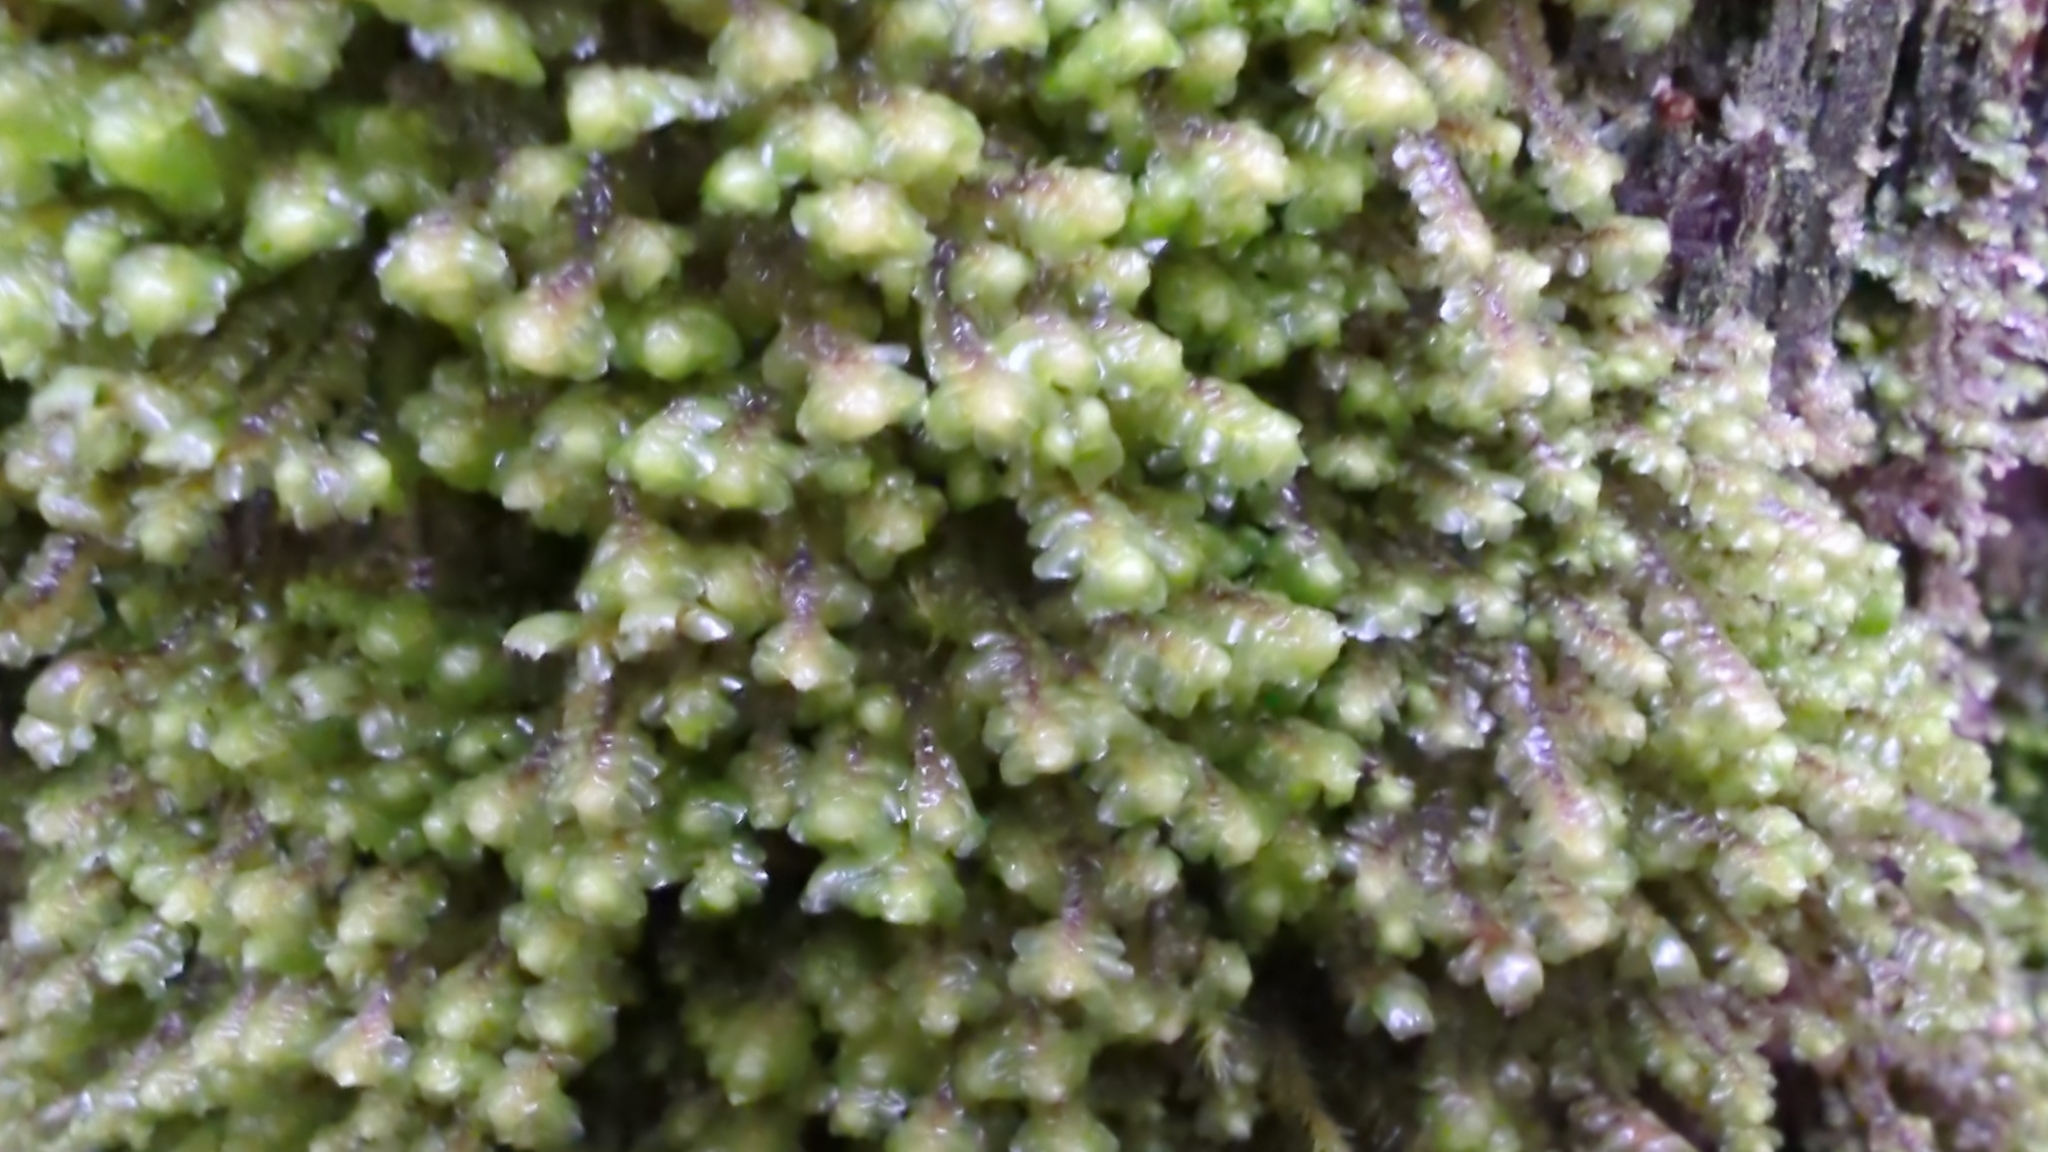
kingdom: Plantae
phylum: Marchantiophyta
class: Jungermanniopsida
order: Jungermanniales
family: Scapaniaceae
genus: Scapania
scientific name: Scapania bolanderi
